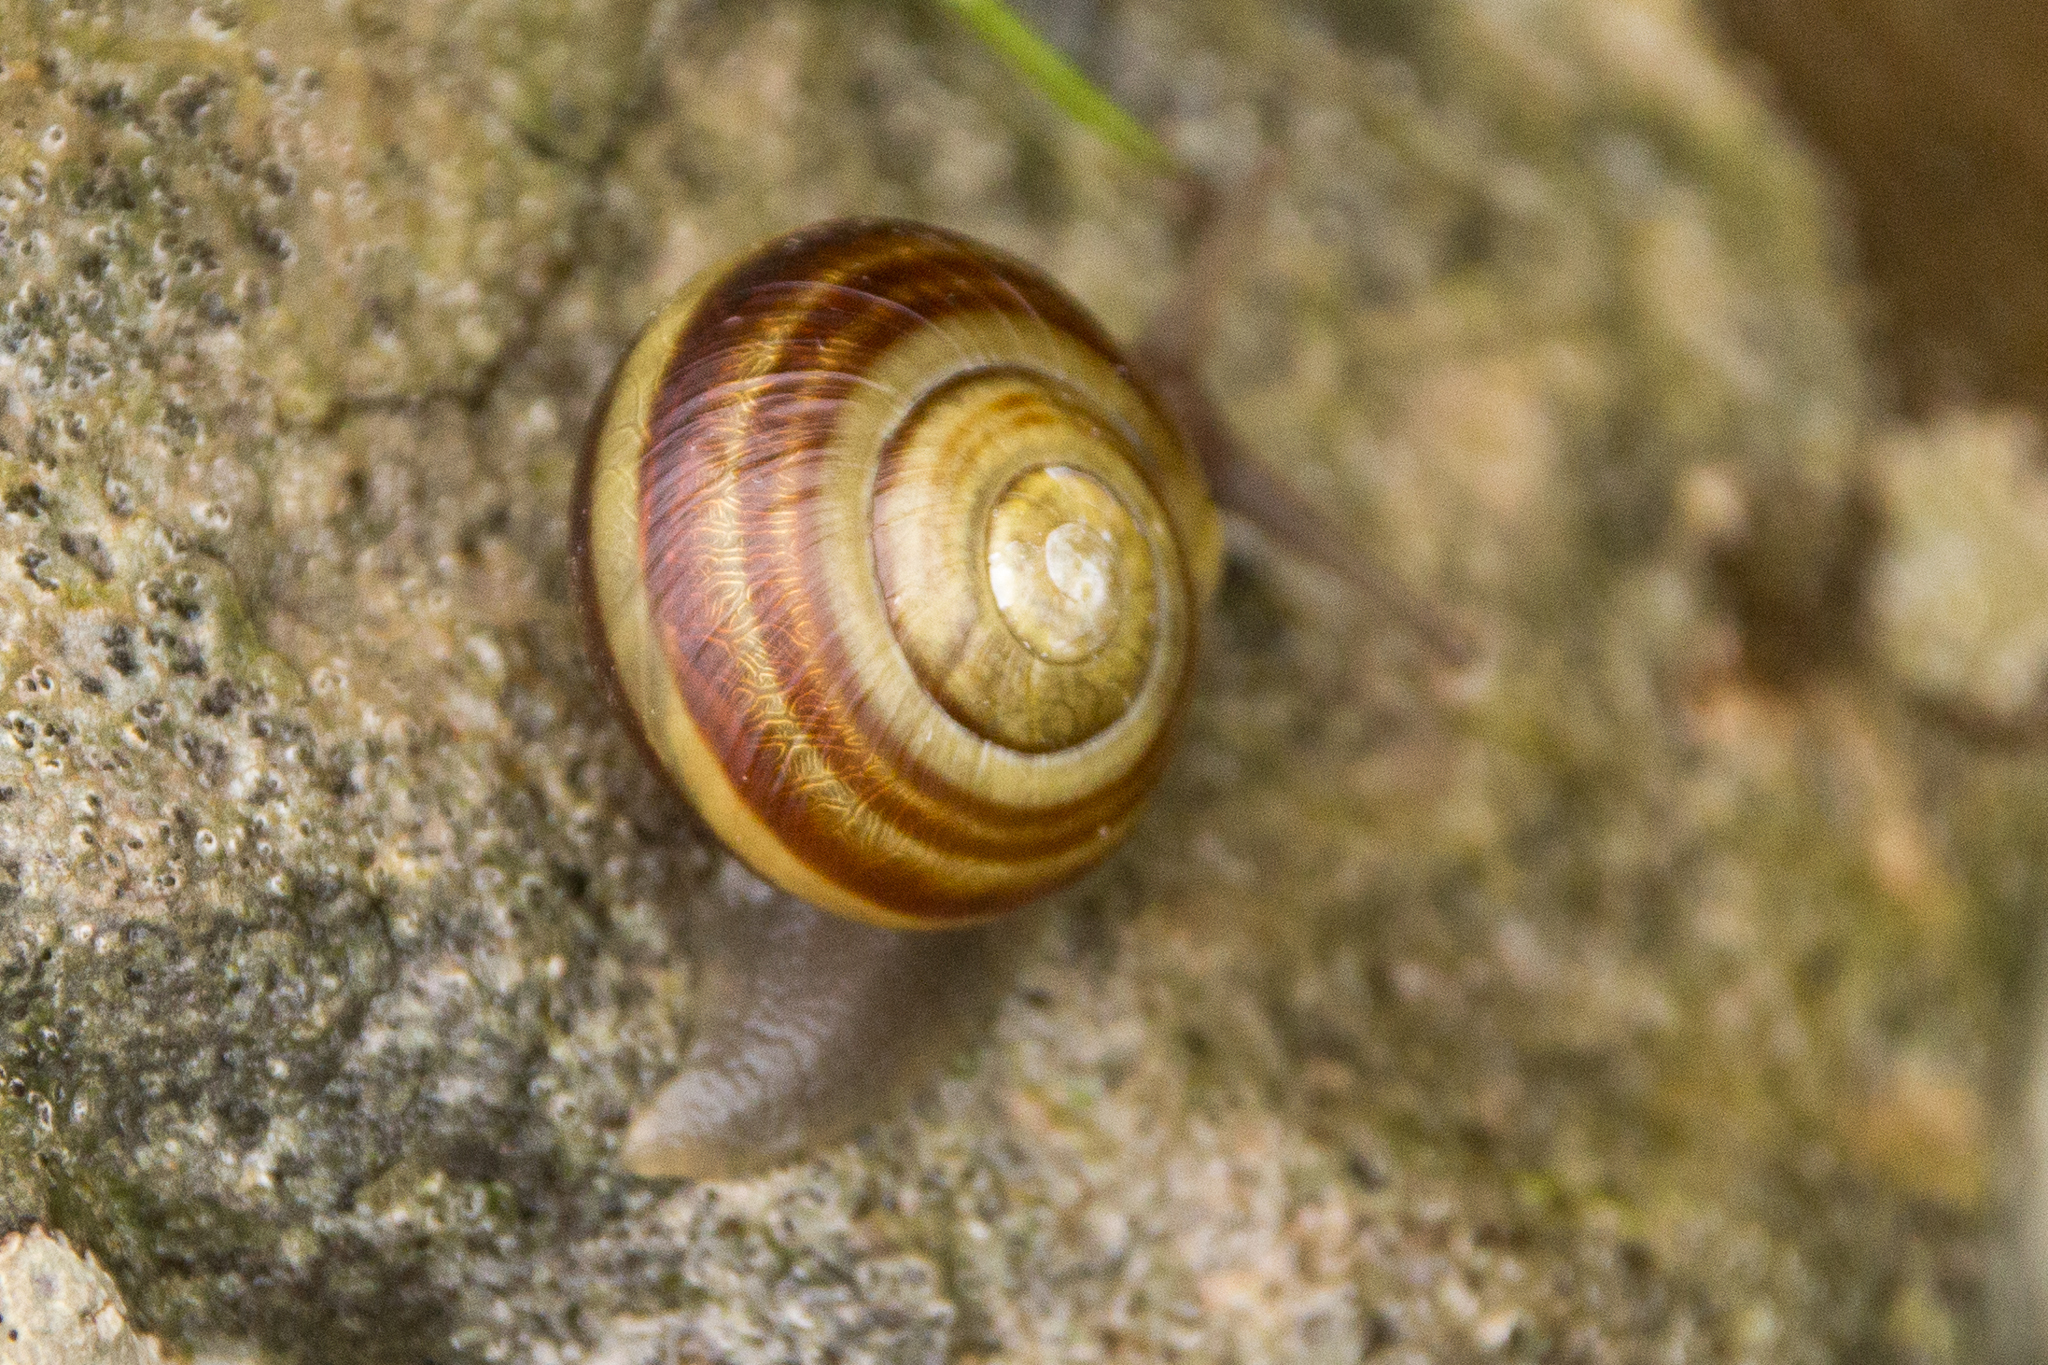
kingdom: Animalia
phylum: Mollusca
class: Gastropoda
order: Stylommatophora
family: Helicidae
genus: Cepaea
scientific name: Cepaea
